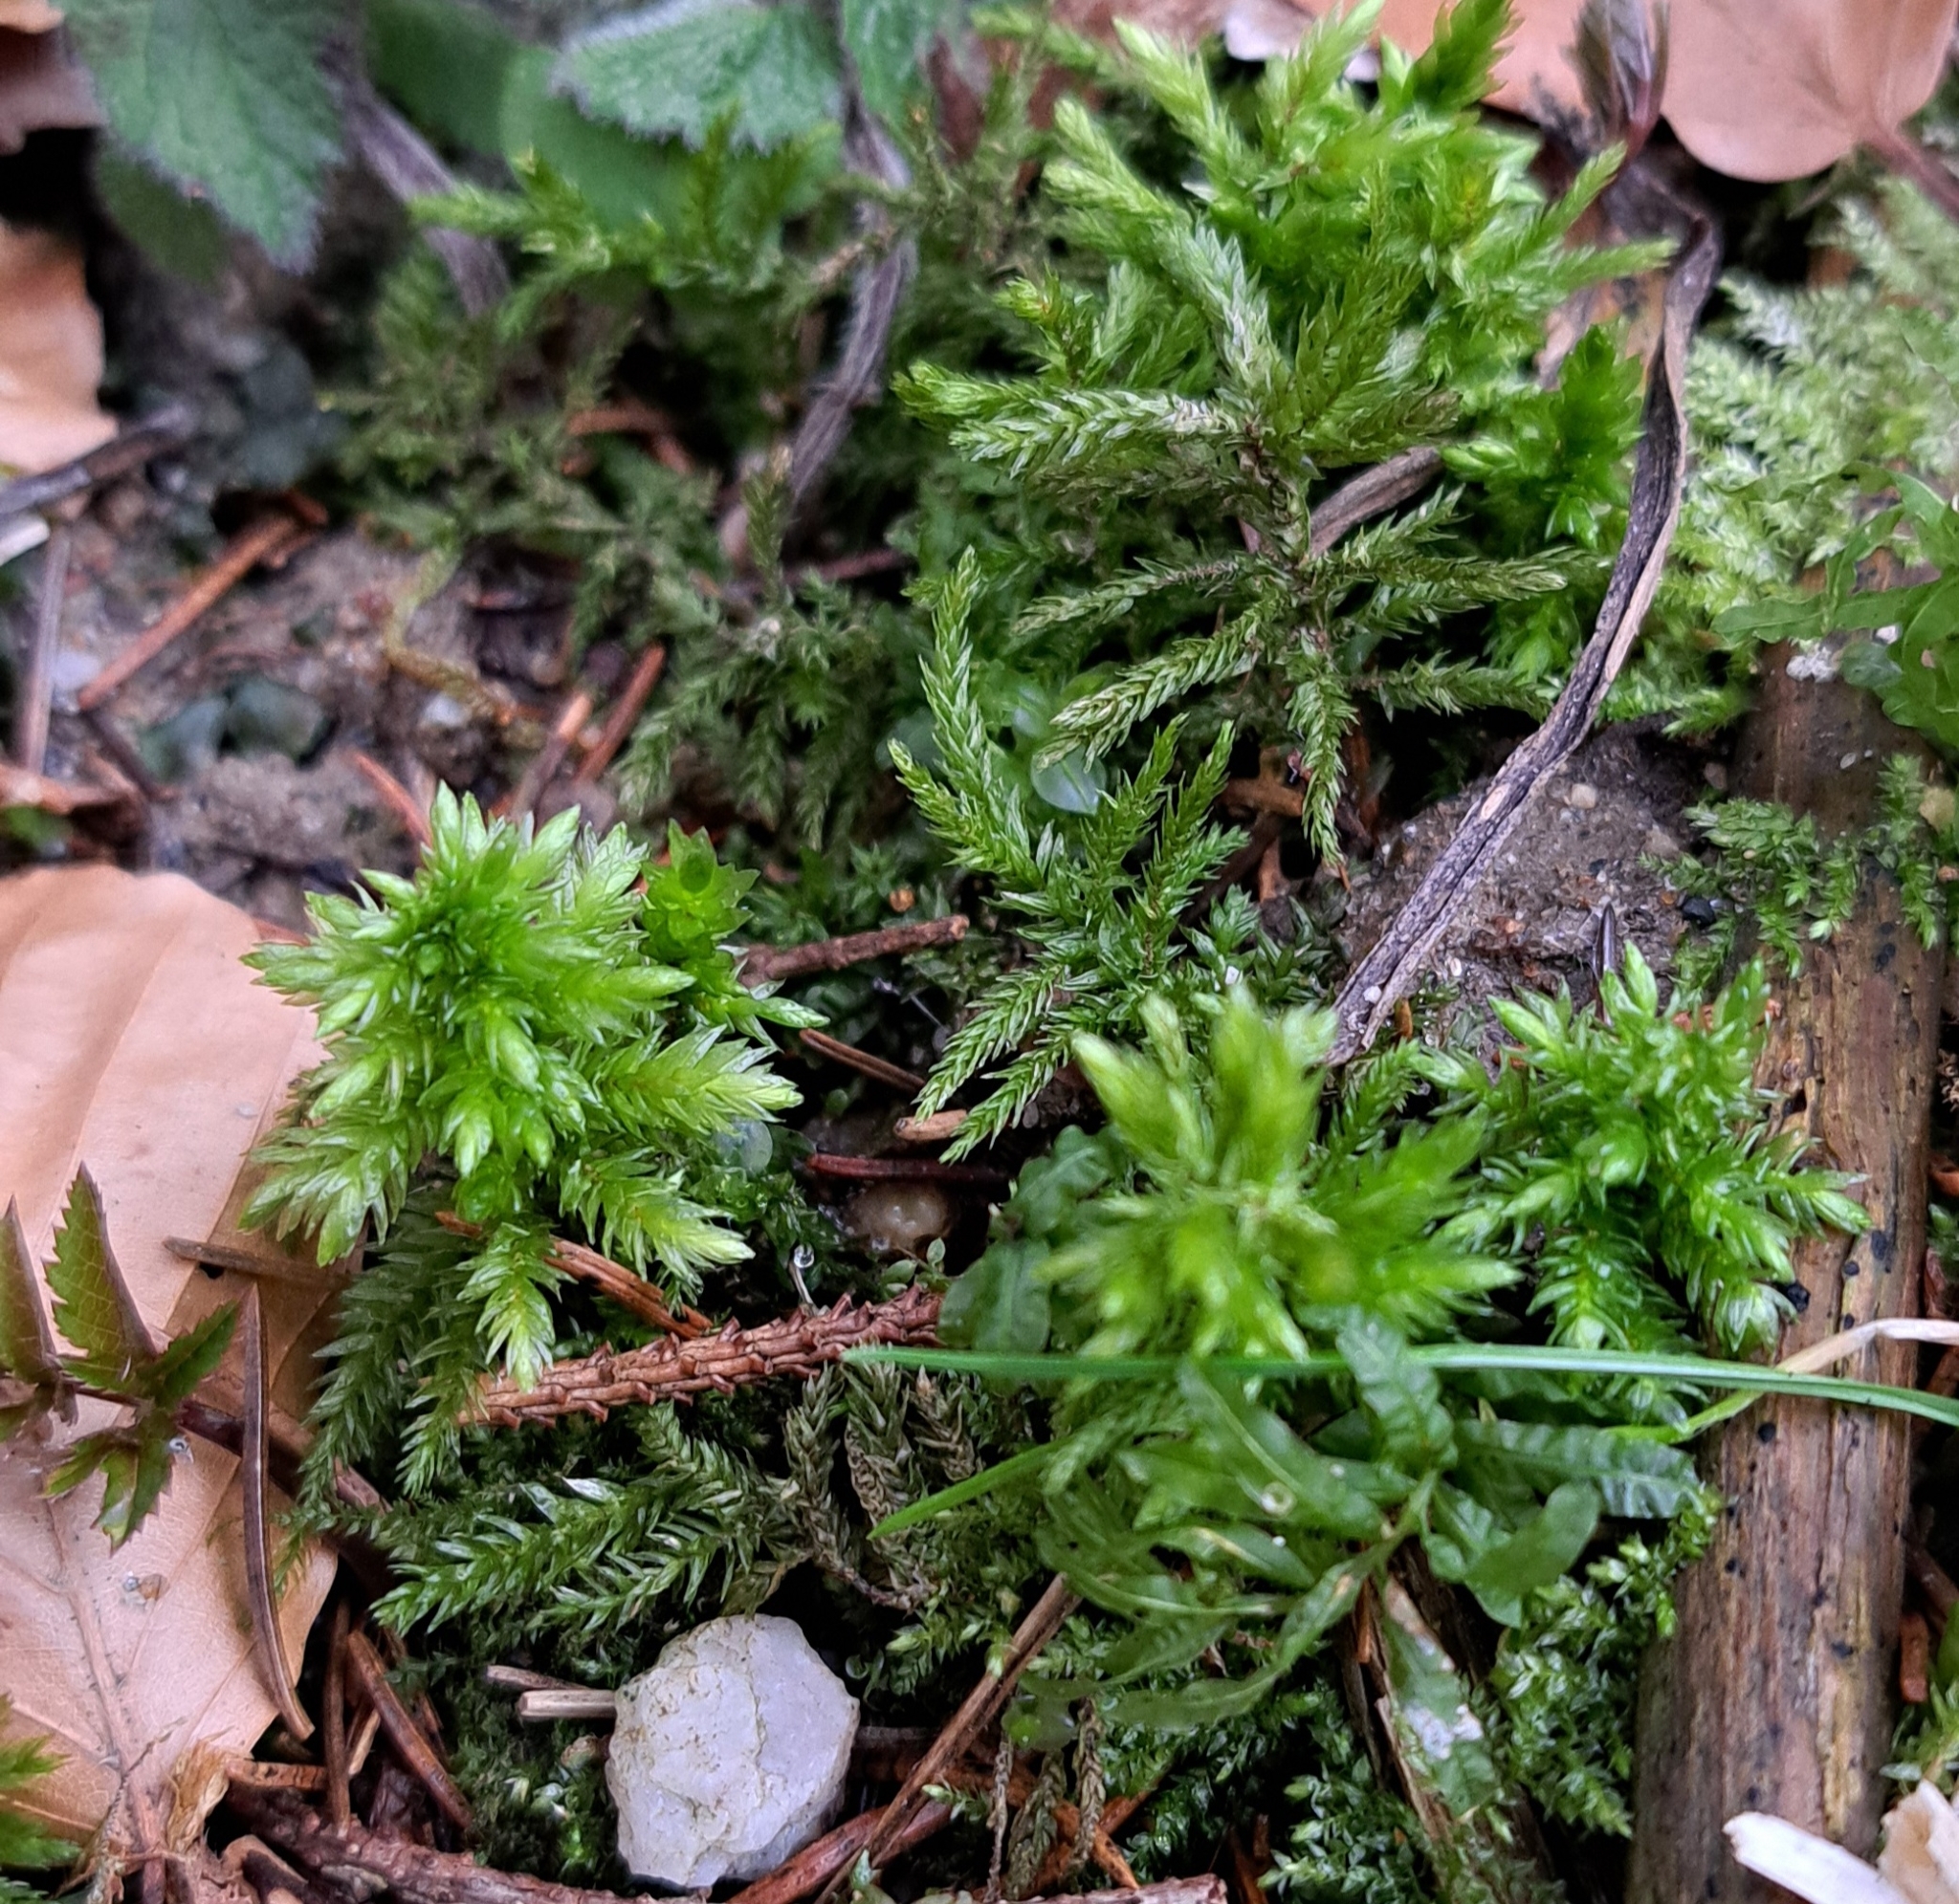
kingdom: Plantae
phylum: Bryophyta
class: Bryopsida
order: Hypnales
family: Climaciaceae
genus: Climacium
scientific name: Climacium dendroides
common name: Northern tree moss
